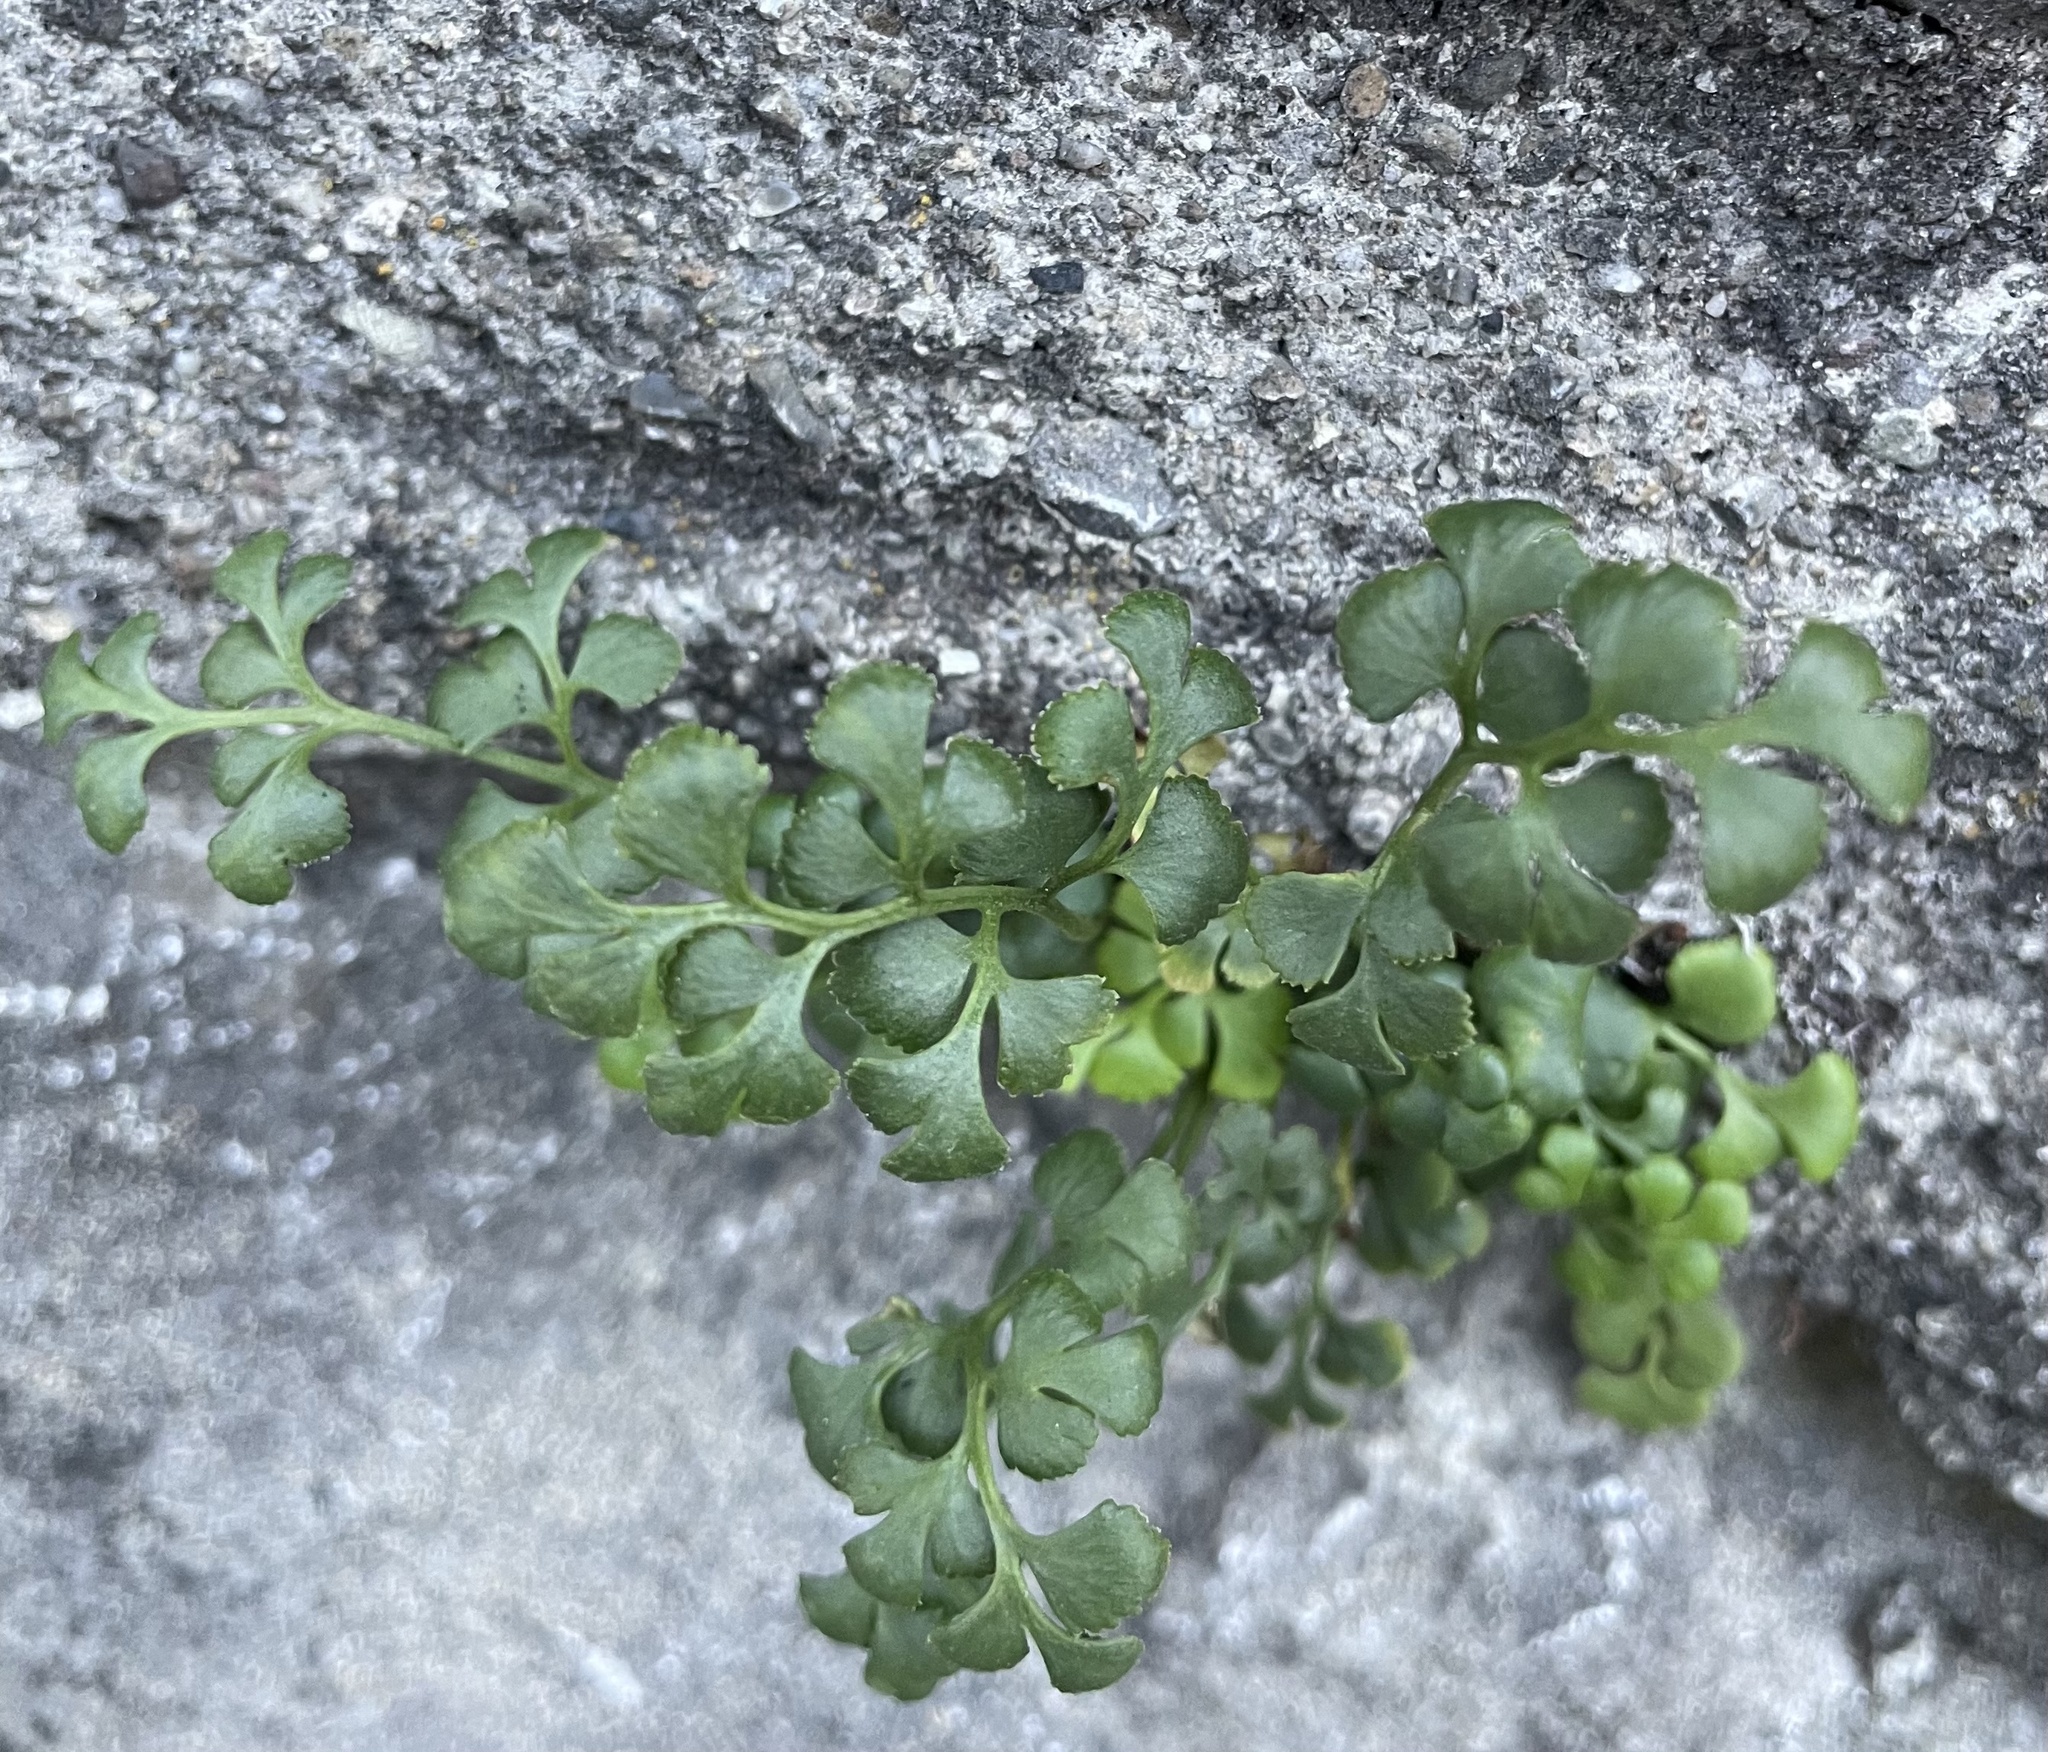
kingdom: Plantae
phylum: Tracheophyta
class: Polypodiopsida
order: Polypodiales
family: Aspleniaceae
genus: Asplenium
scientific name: Asplenium ruta-muraria
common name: Wall-rue
